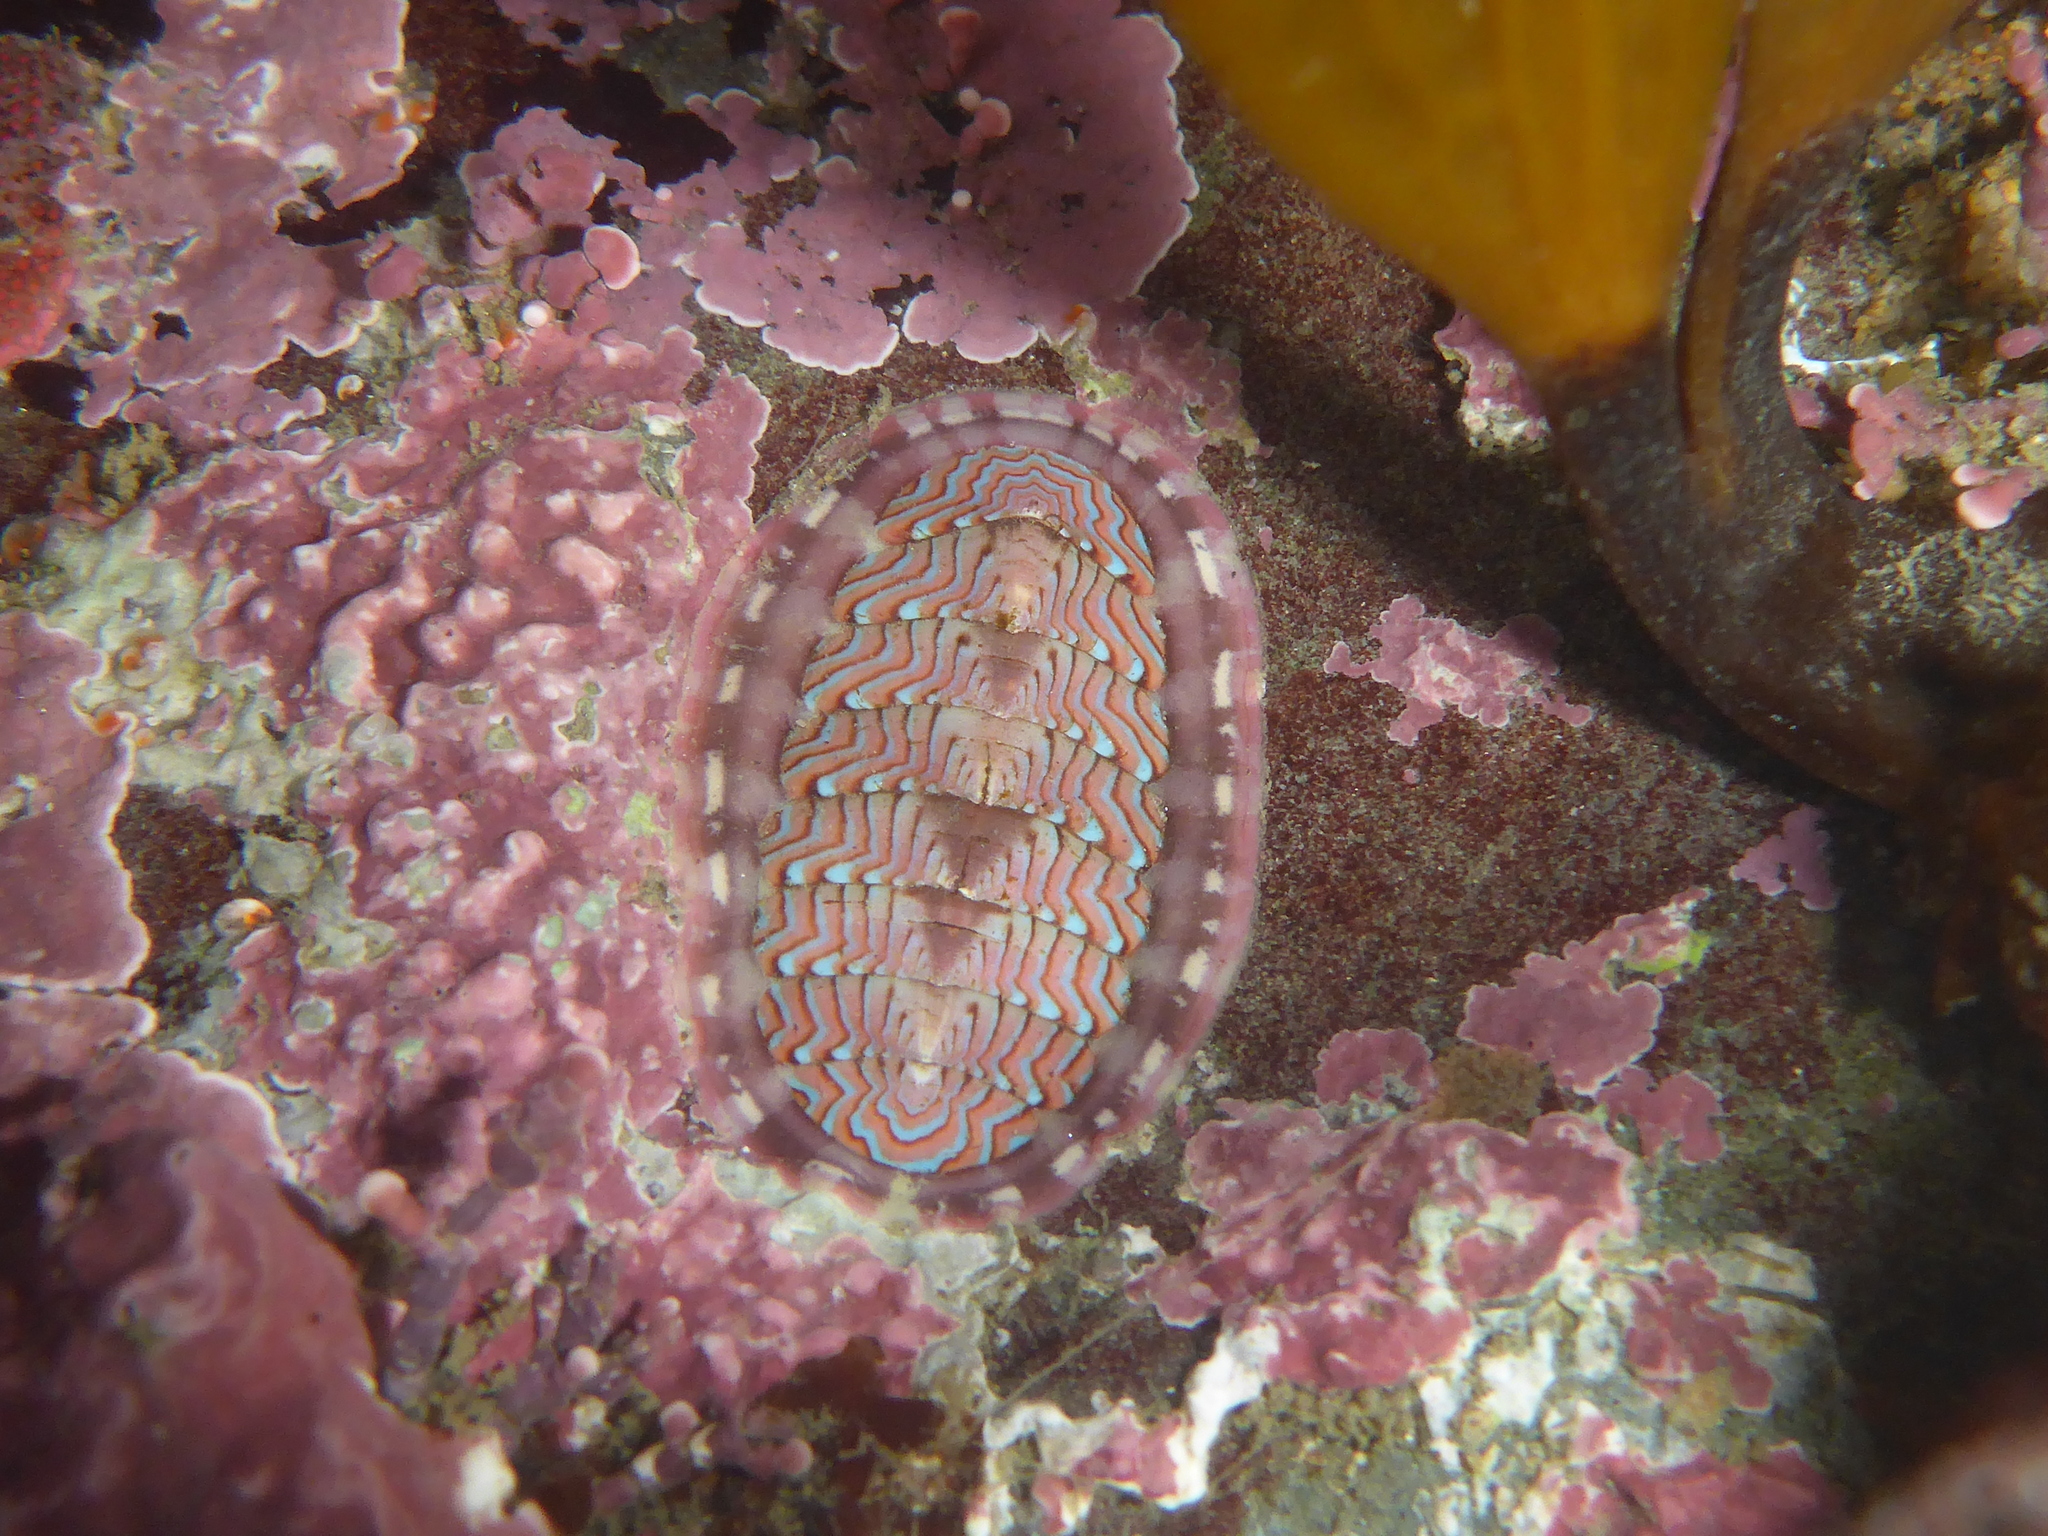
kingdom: Animalia
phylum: Mollusca
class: Polyplacophora
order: Chitonida
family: Tonicellidae
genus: Tonicella
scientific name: Tonicella lokii
